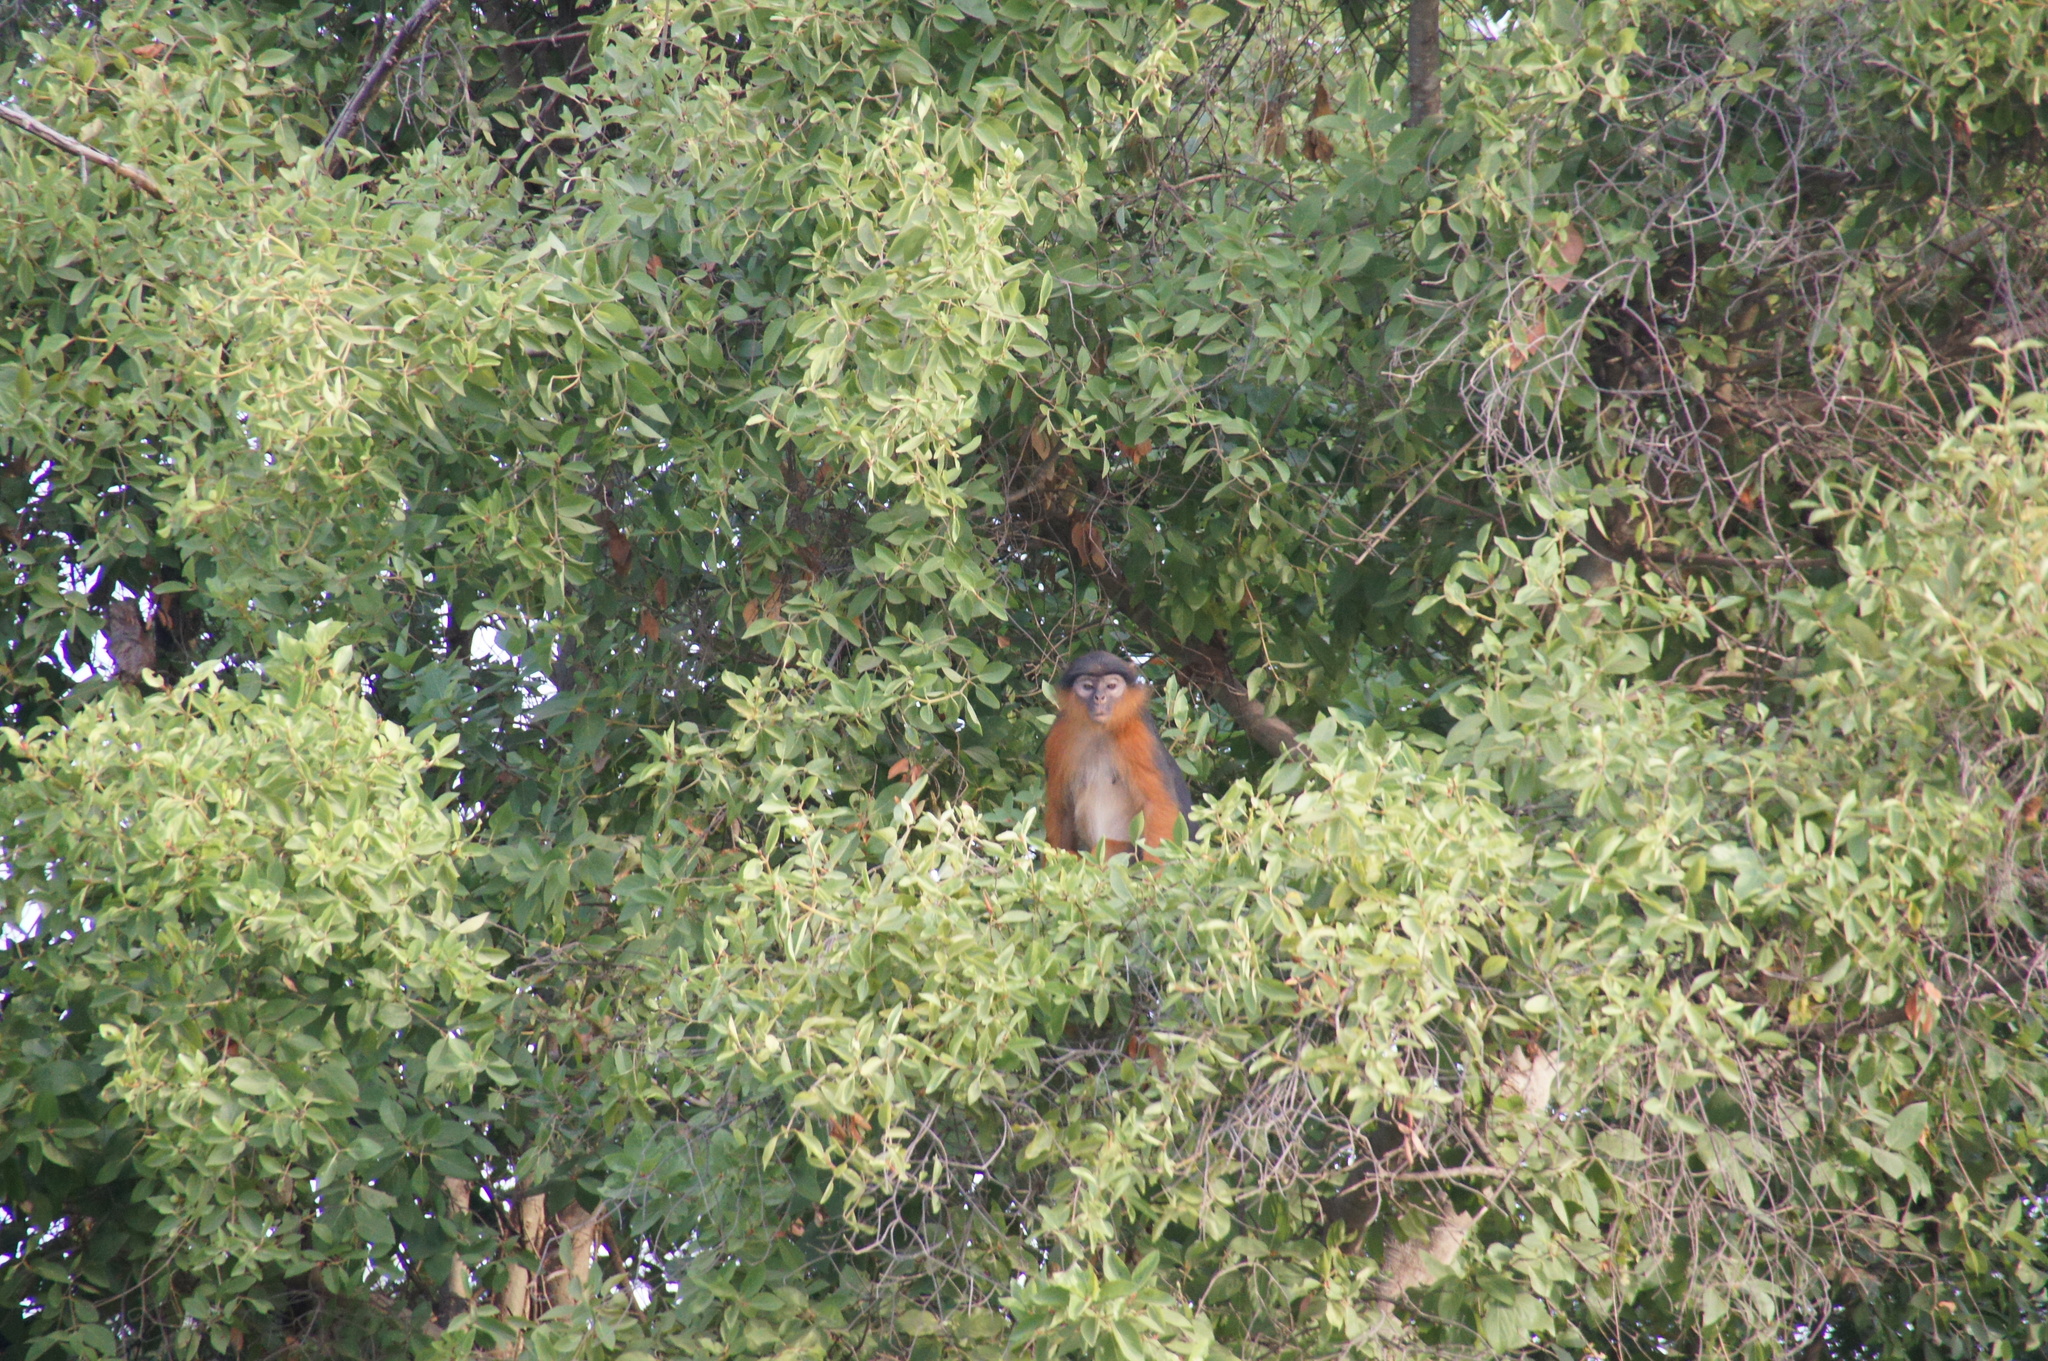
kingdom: Animalia
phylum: Chordata
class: Mammalia
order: Primates
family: Cercopithecidae
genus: Piliocolobus
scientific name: Piliocolobus badius
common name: Western red colobus
